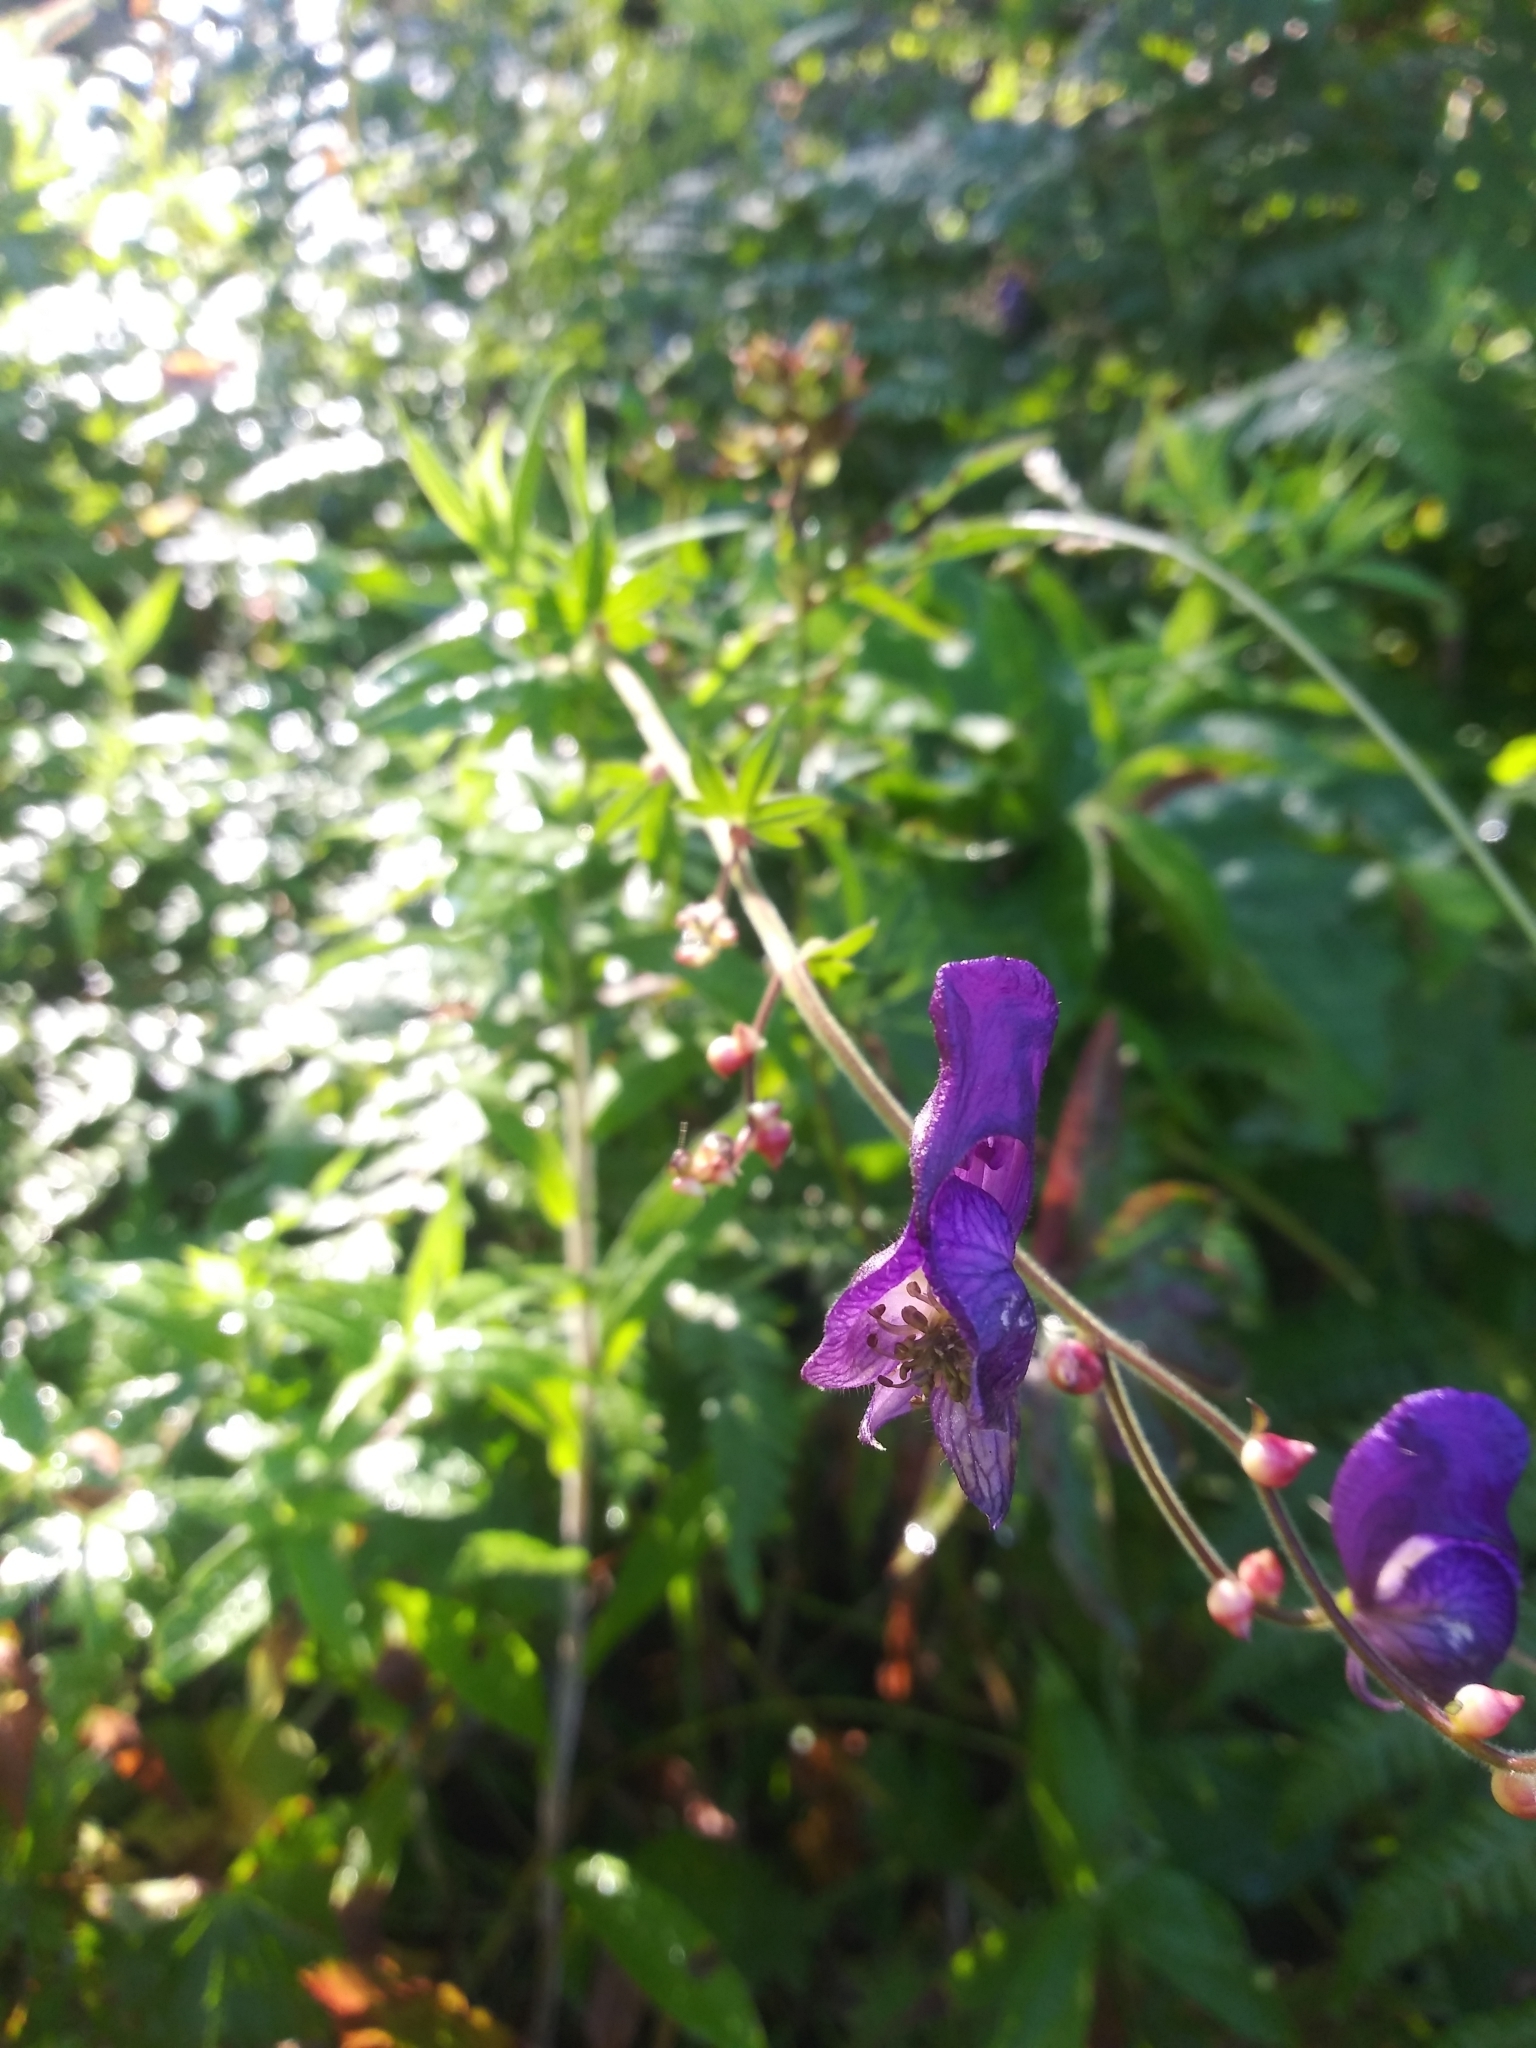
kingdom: Plantae
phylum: Tracheophyta
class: Magnoliopsida
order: Ranunculales
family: Ranunculaceae
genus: Aconitum
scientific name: Aconitum columbianum
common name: Columbia aconite
